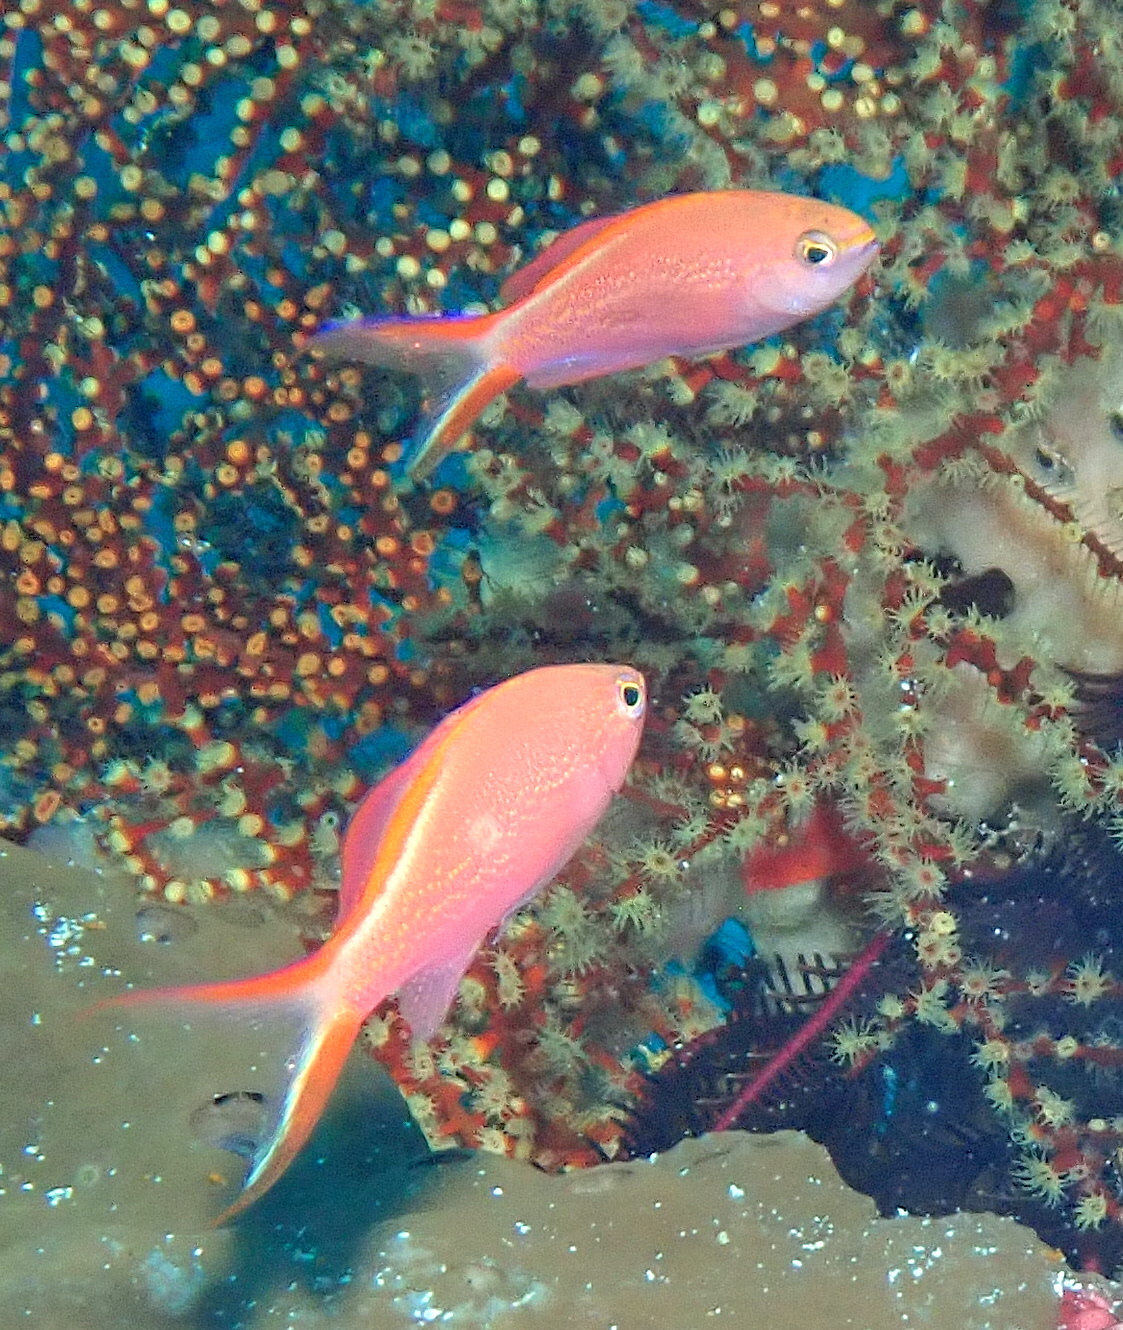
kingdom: Animalia
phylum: Chordata
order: Perciformes
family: Serranidae
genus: Pyronotanthias
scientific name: Pyronotanthias
